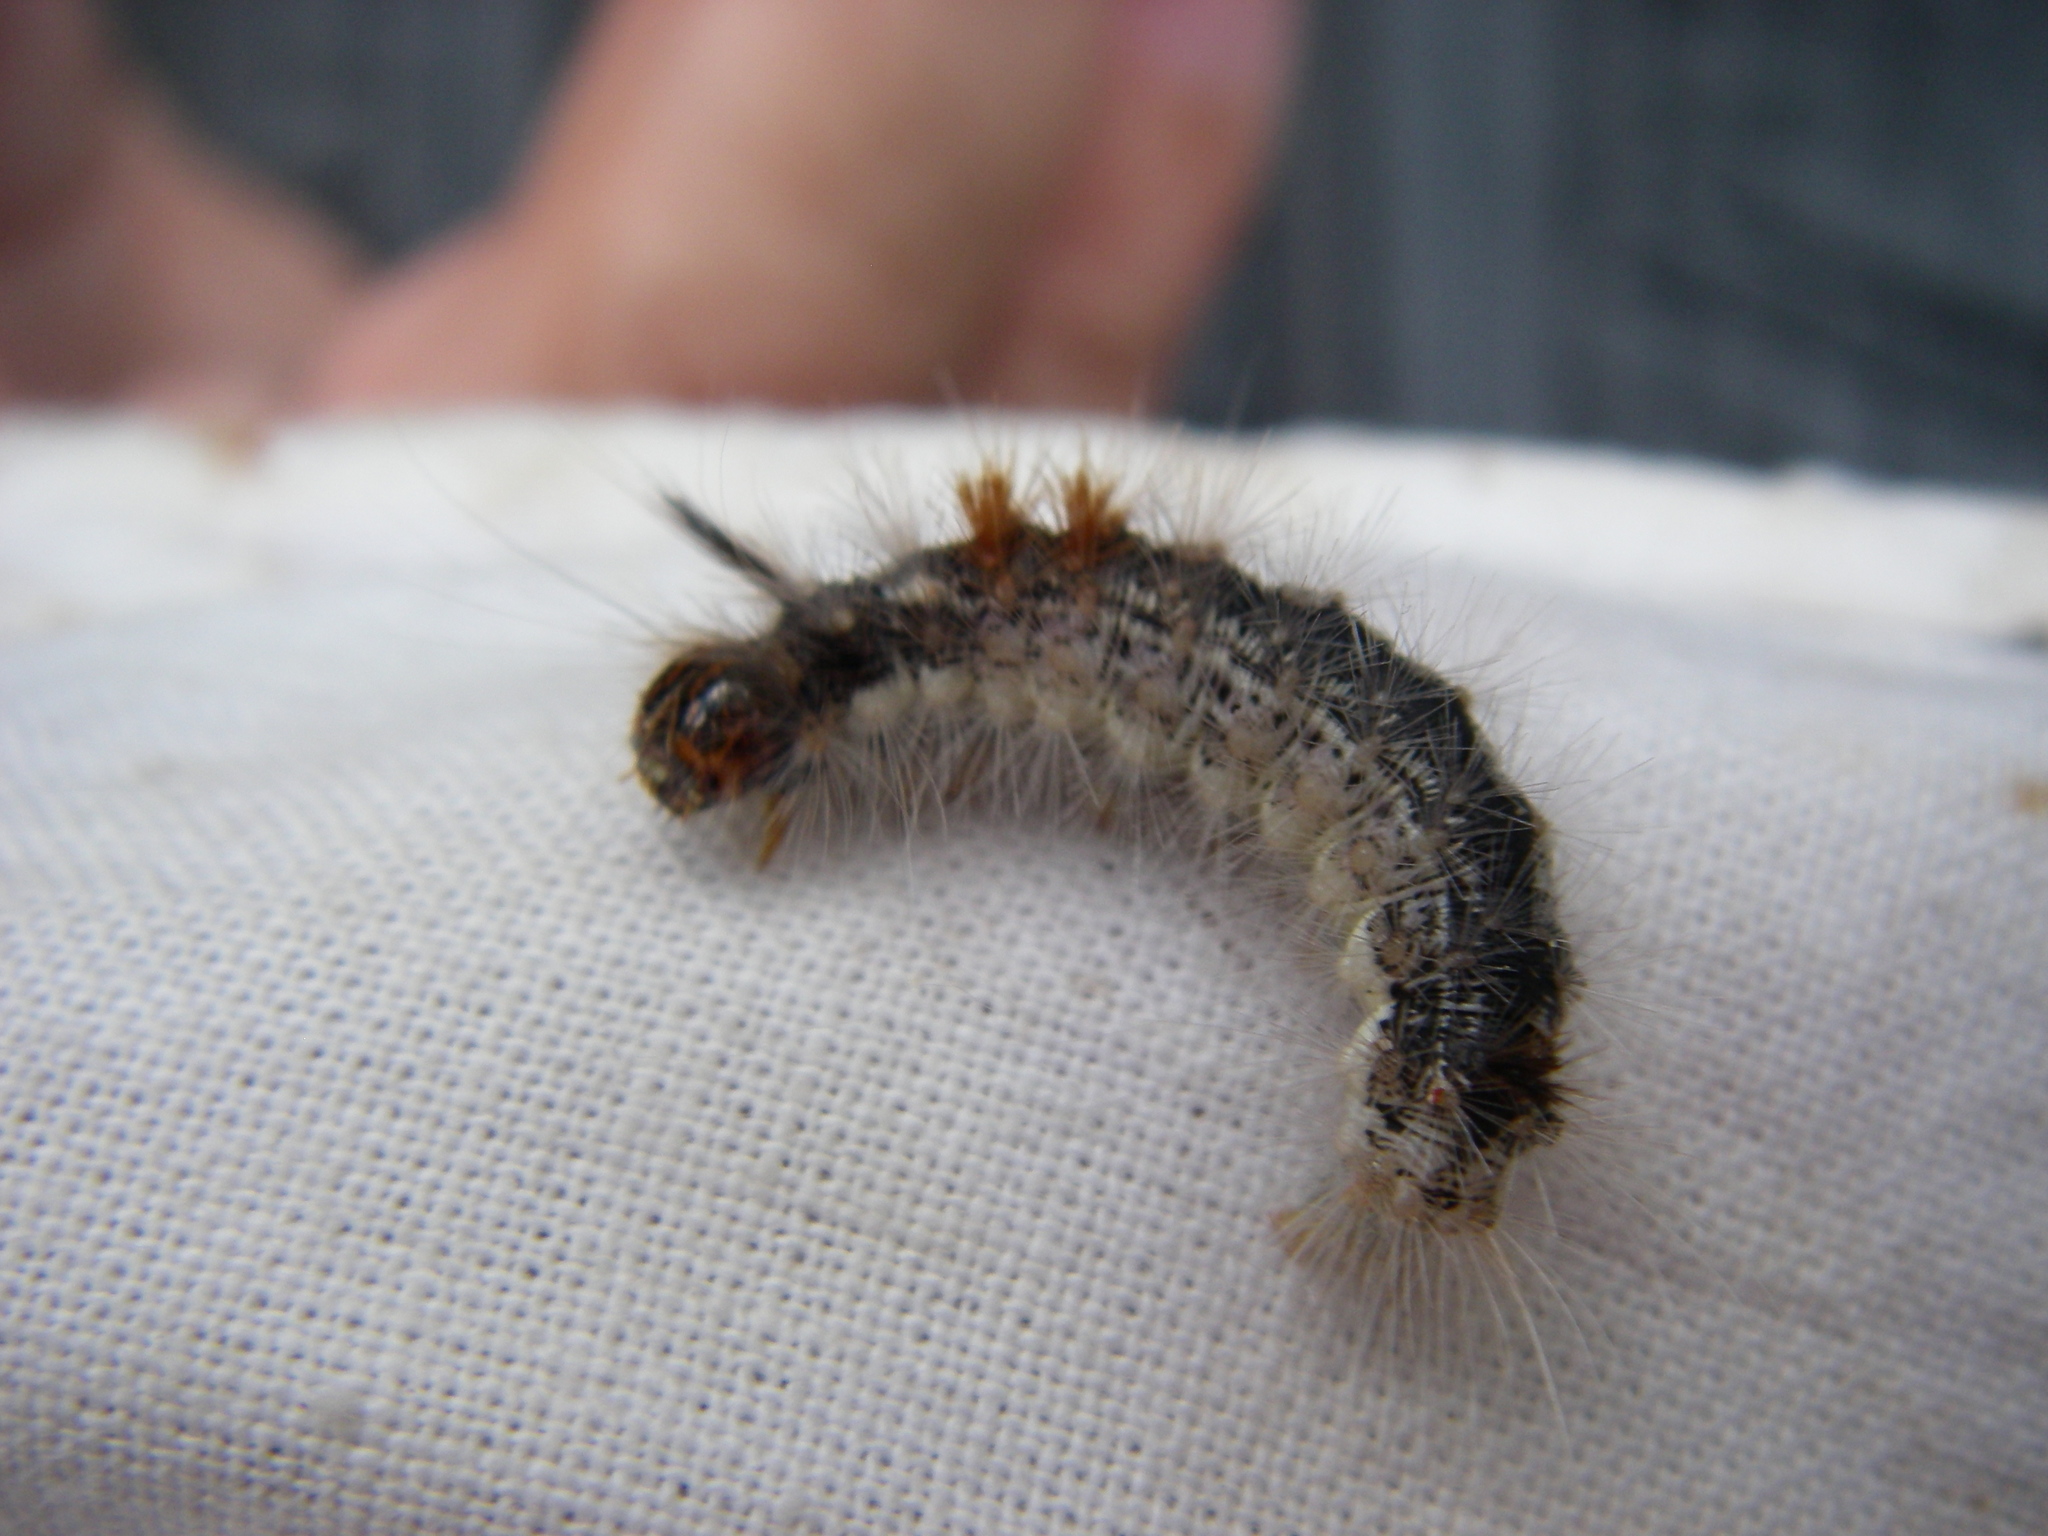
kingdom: Animalia
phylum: Arthropoda
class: Insecta
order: Lepidoptera
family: Noctuidae
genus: Colocasia
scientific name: Colocasia coryli
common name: Nut-tree tussock
